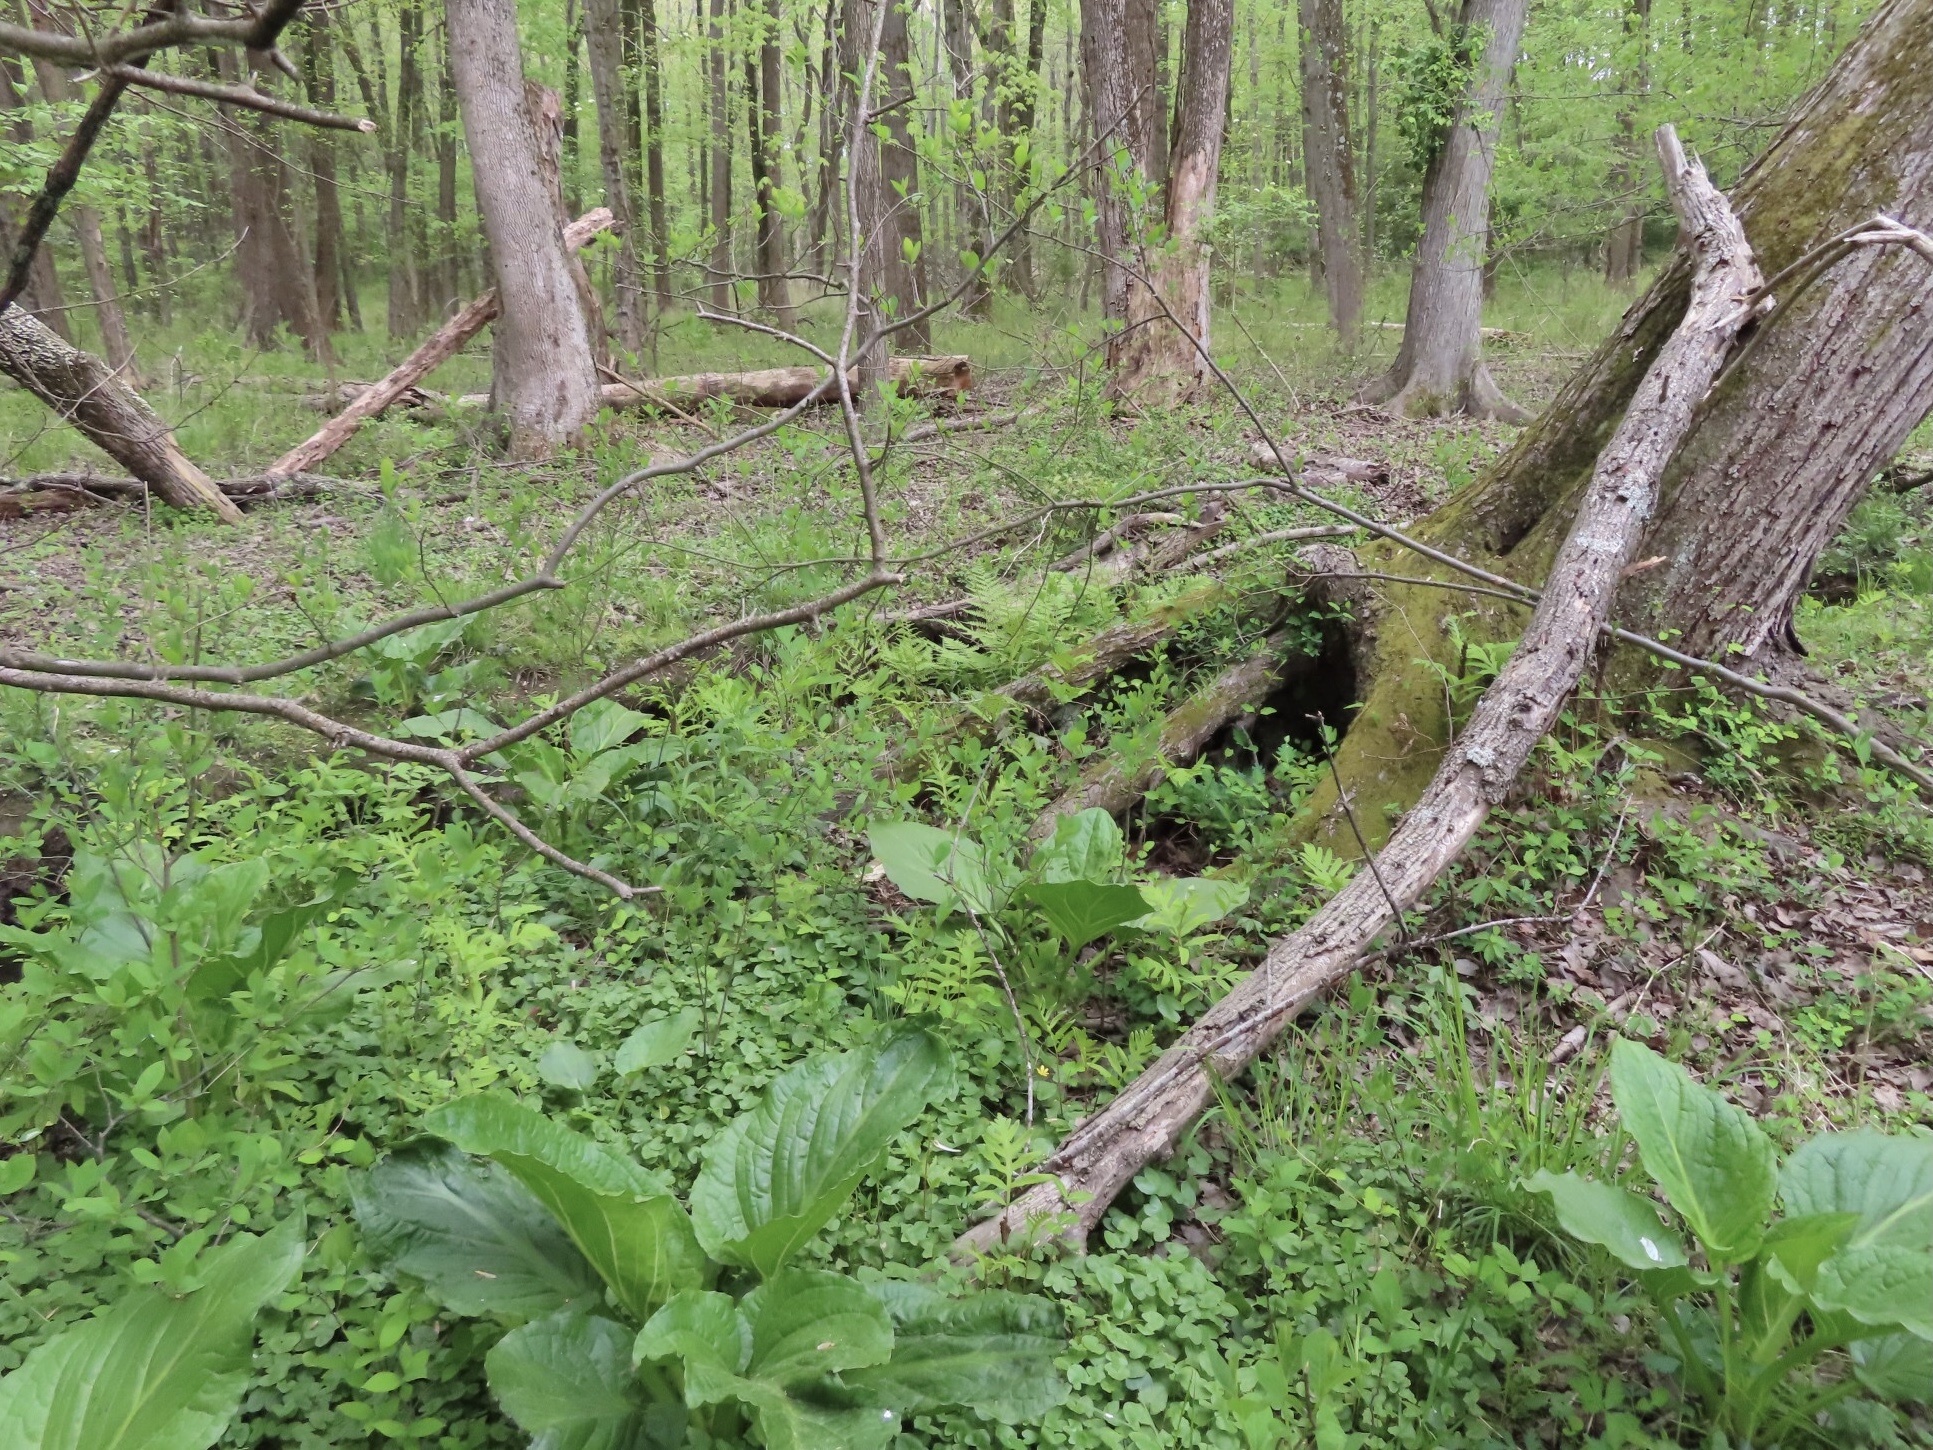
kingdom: Plantae
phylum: Tracheophyta
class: Liliopsida
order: Alismatales
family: Araceae
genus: Symplocarpus
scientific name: Symplocarpus foetidus
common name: Eastern skunk cabbage
